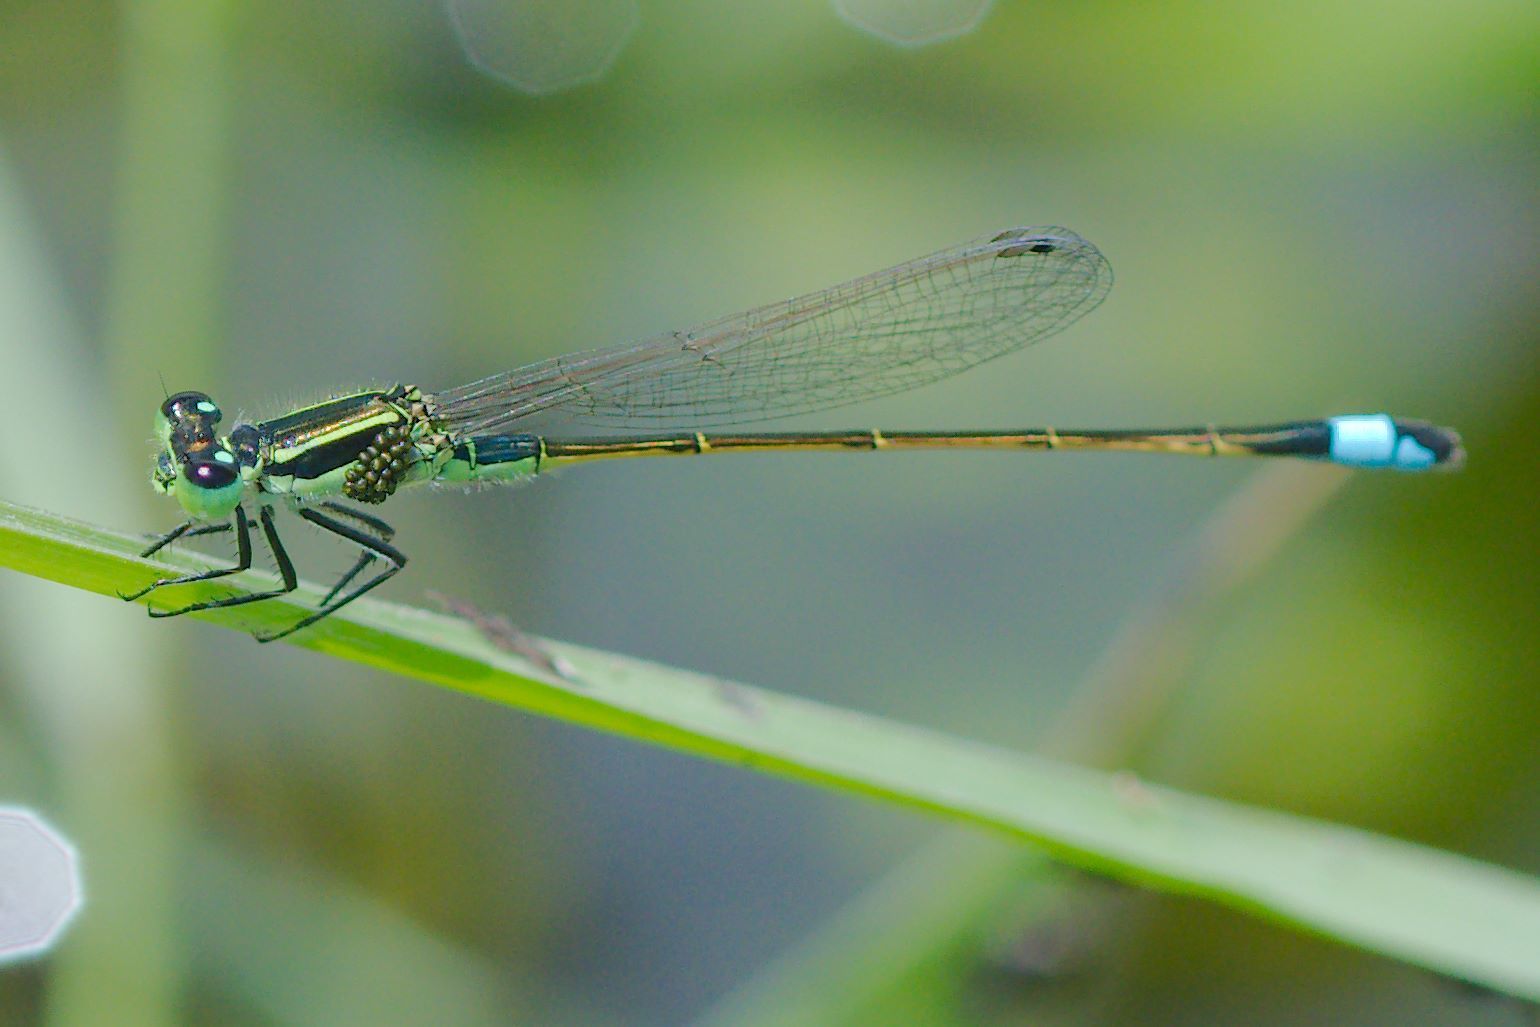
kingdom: Animalia
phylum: Arthropoda
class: Insecta
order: Odonata
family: Coenagrionidae
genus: Ischnura
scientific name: Ischnura ramburii
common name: Rambur's forktail
